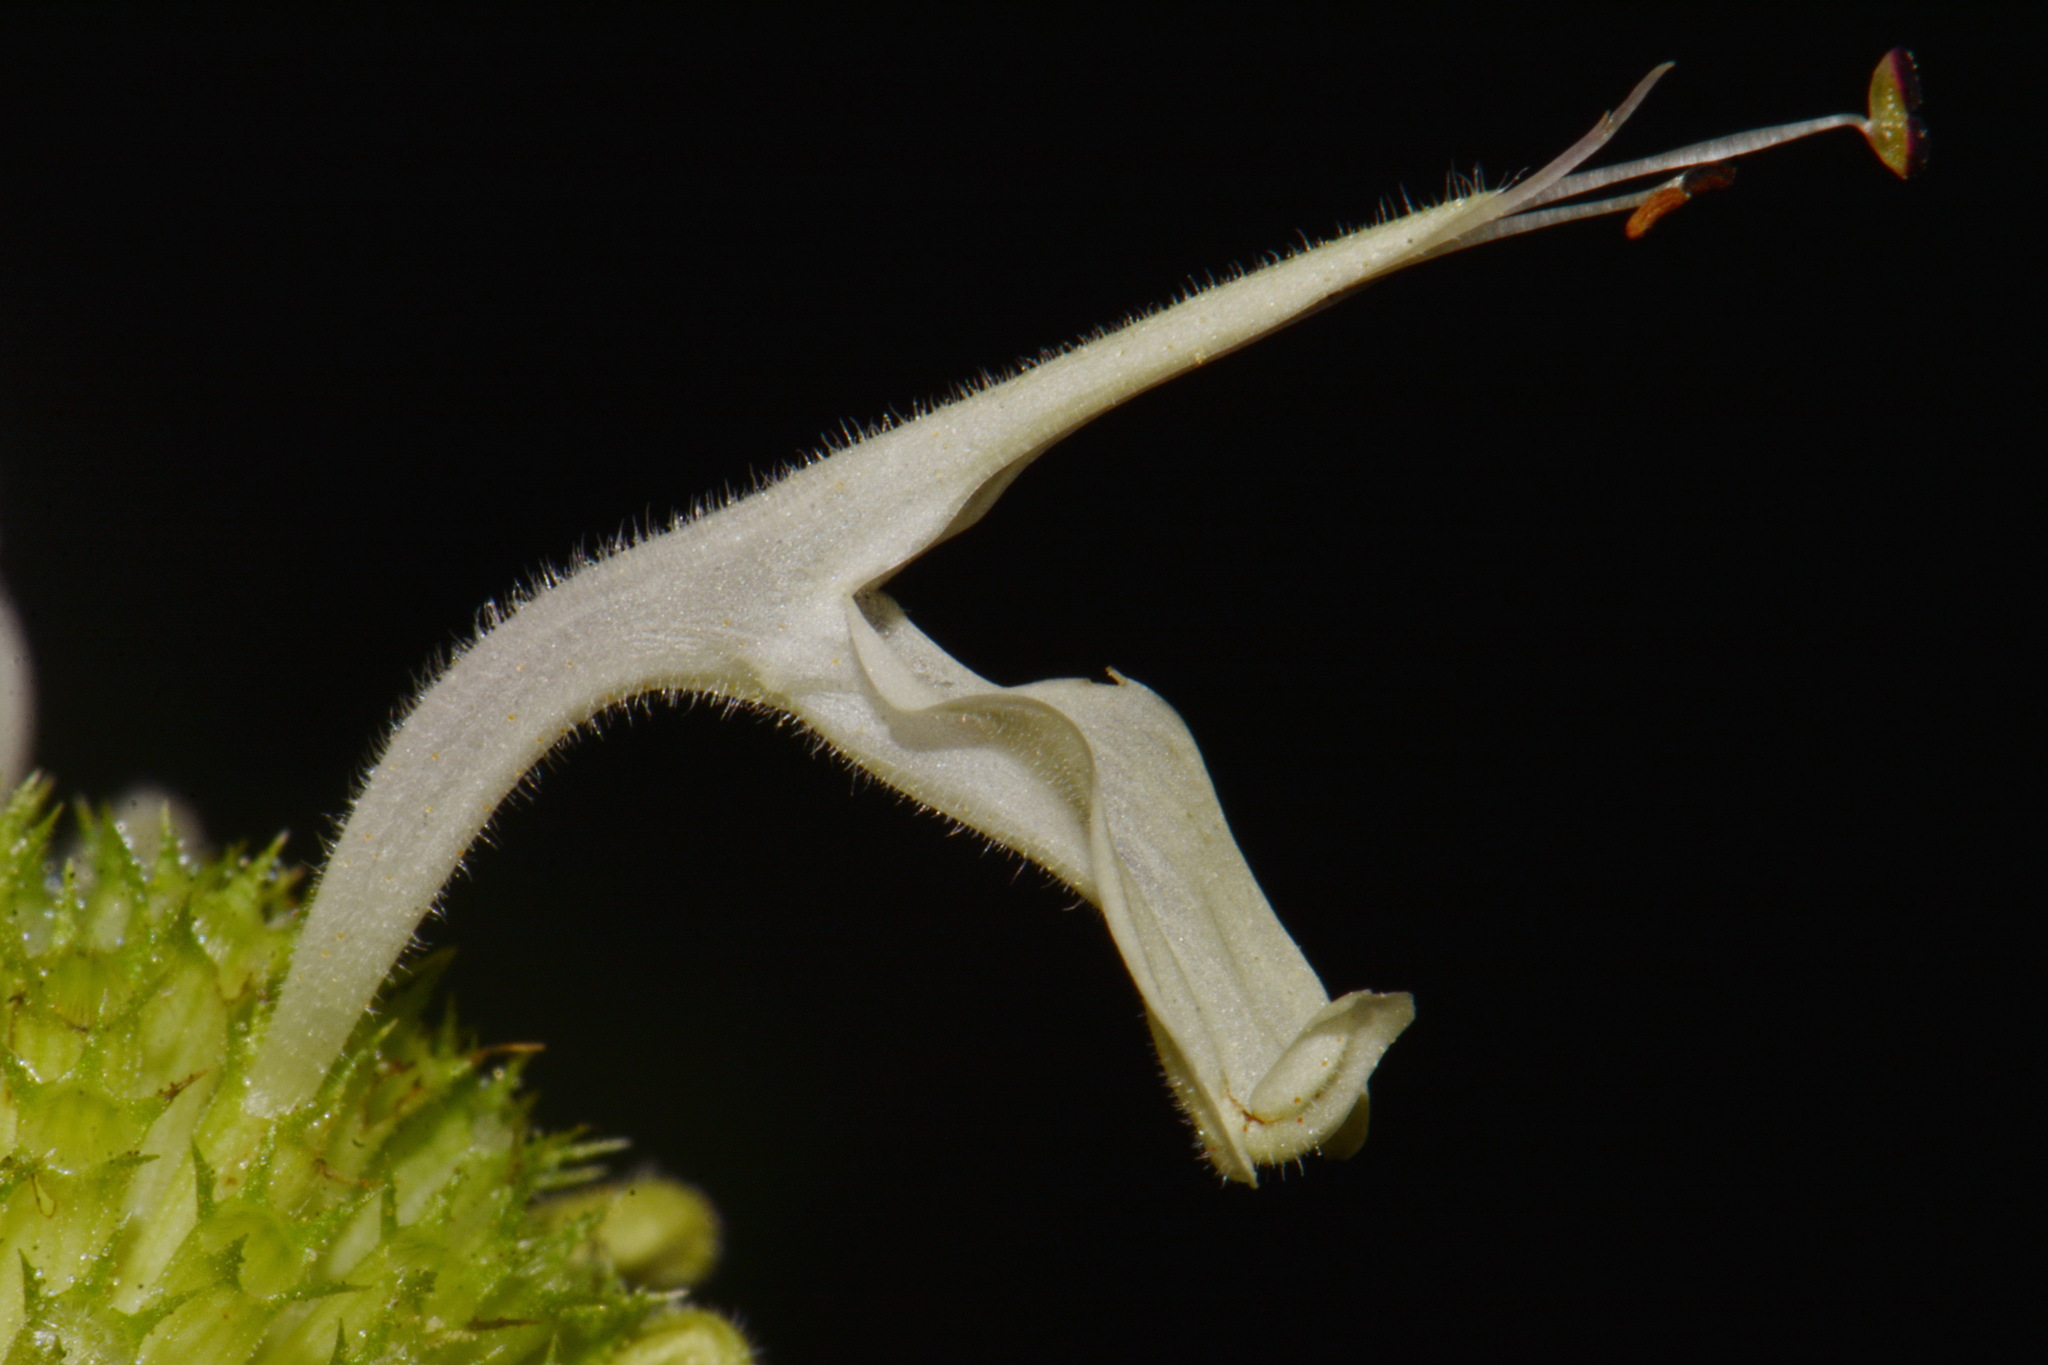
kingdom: Plantae
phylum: Tracheophyta
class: Magnoliopsida
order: Lamiales
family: Lamiaceae
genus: Monarda
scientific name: Monarda austroappalachiana
